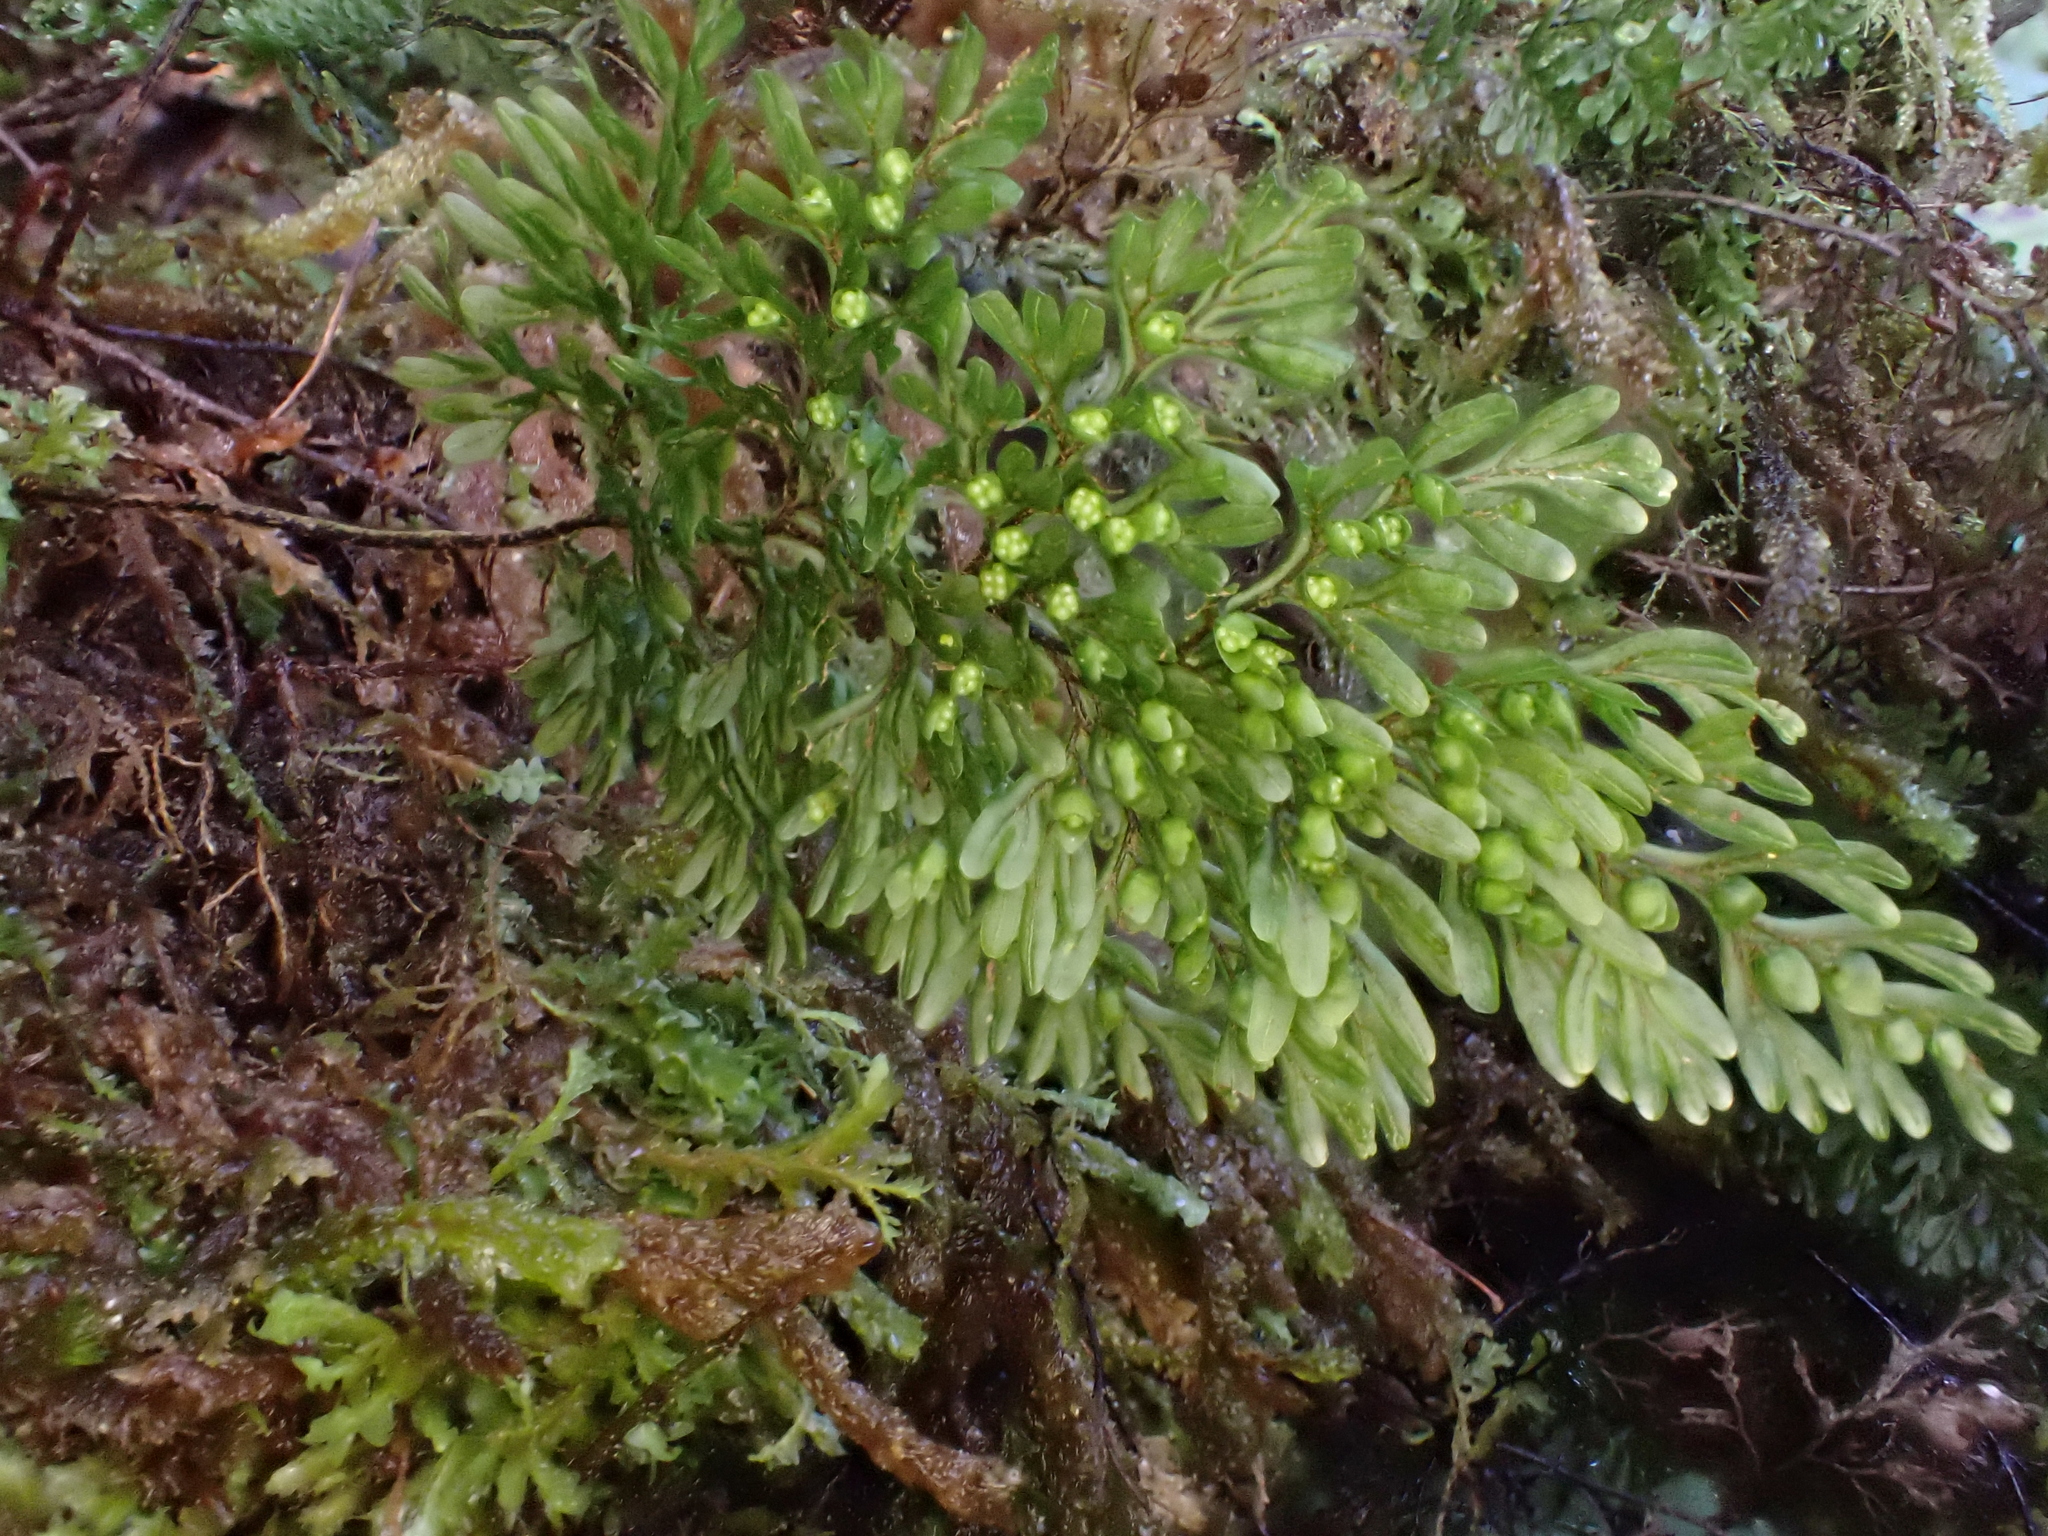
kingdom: Plantae
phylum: Tracheophyta
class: Polypodiopsida
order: Hymenophyllales
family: Hymenophyllaceae
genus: Hymenophyllum
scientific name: Hymenophyllum villosum
